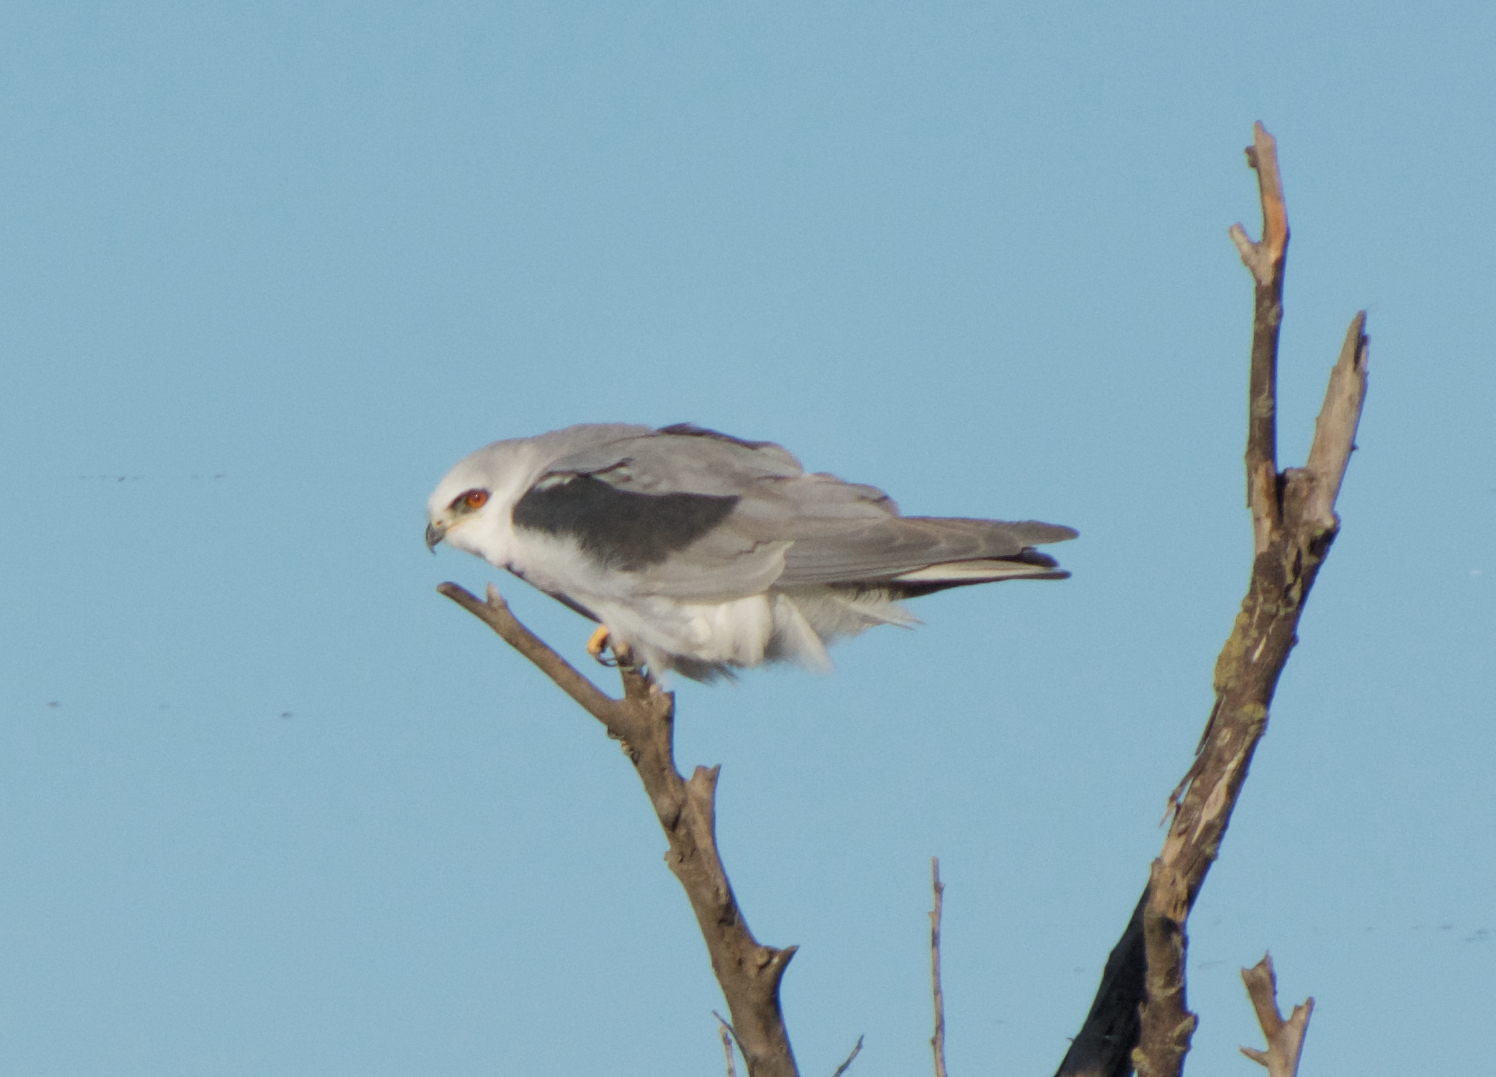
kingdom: Animalia
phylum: Chordata
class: Aves
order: Accipitriformes
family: Accipitridae
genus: Elanus
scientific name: Elanus leucurus
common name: White-tailed kite
